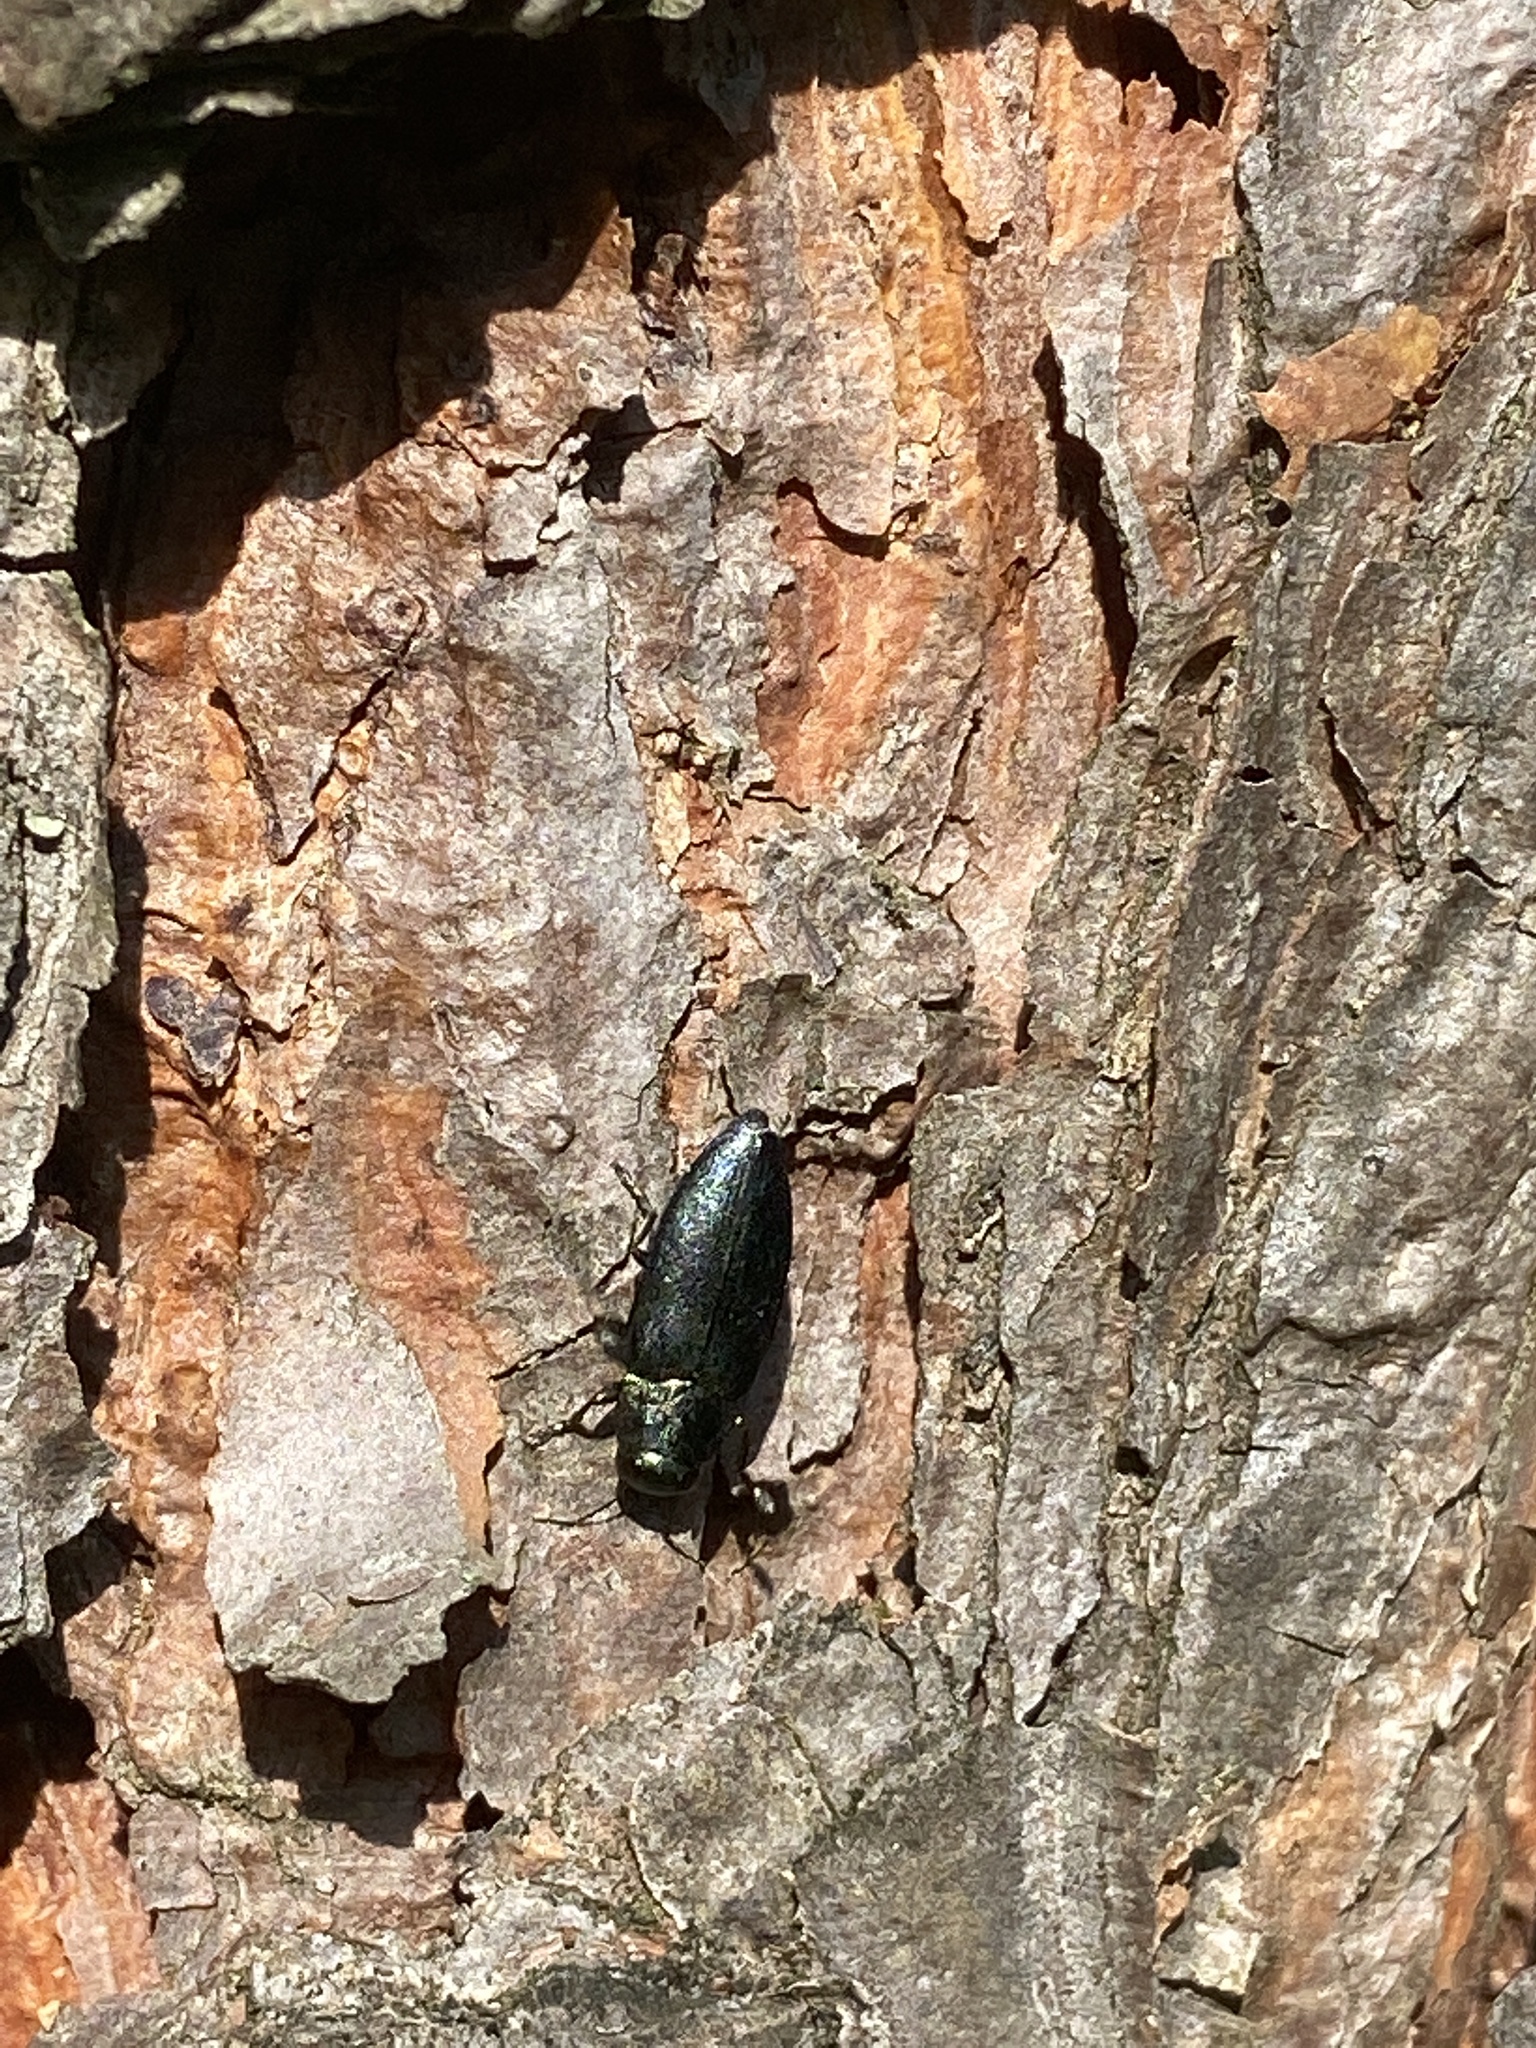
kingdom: Animalia
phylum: Arthropoda
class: Insecta
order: Coleoptera
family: Buprestidae
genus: Phaenops
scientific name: Phaenops cyanea
